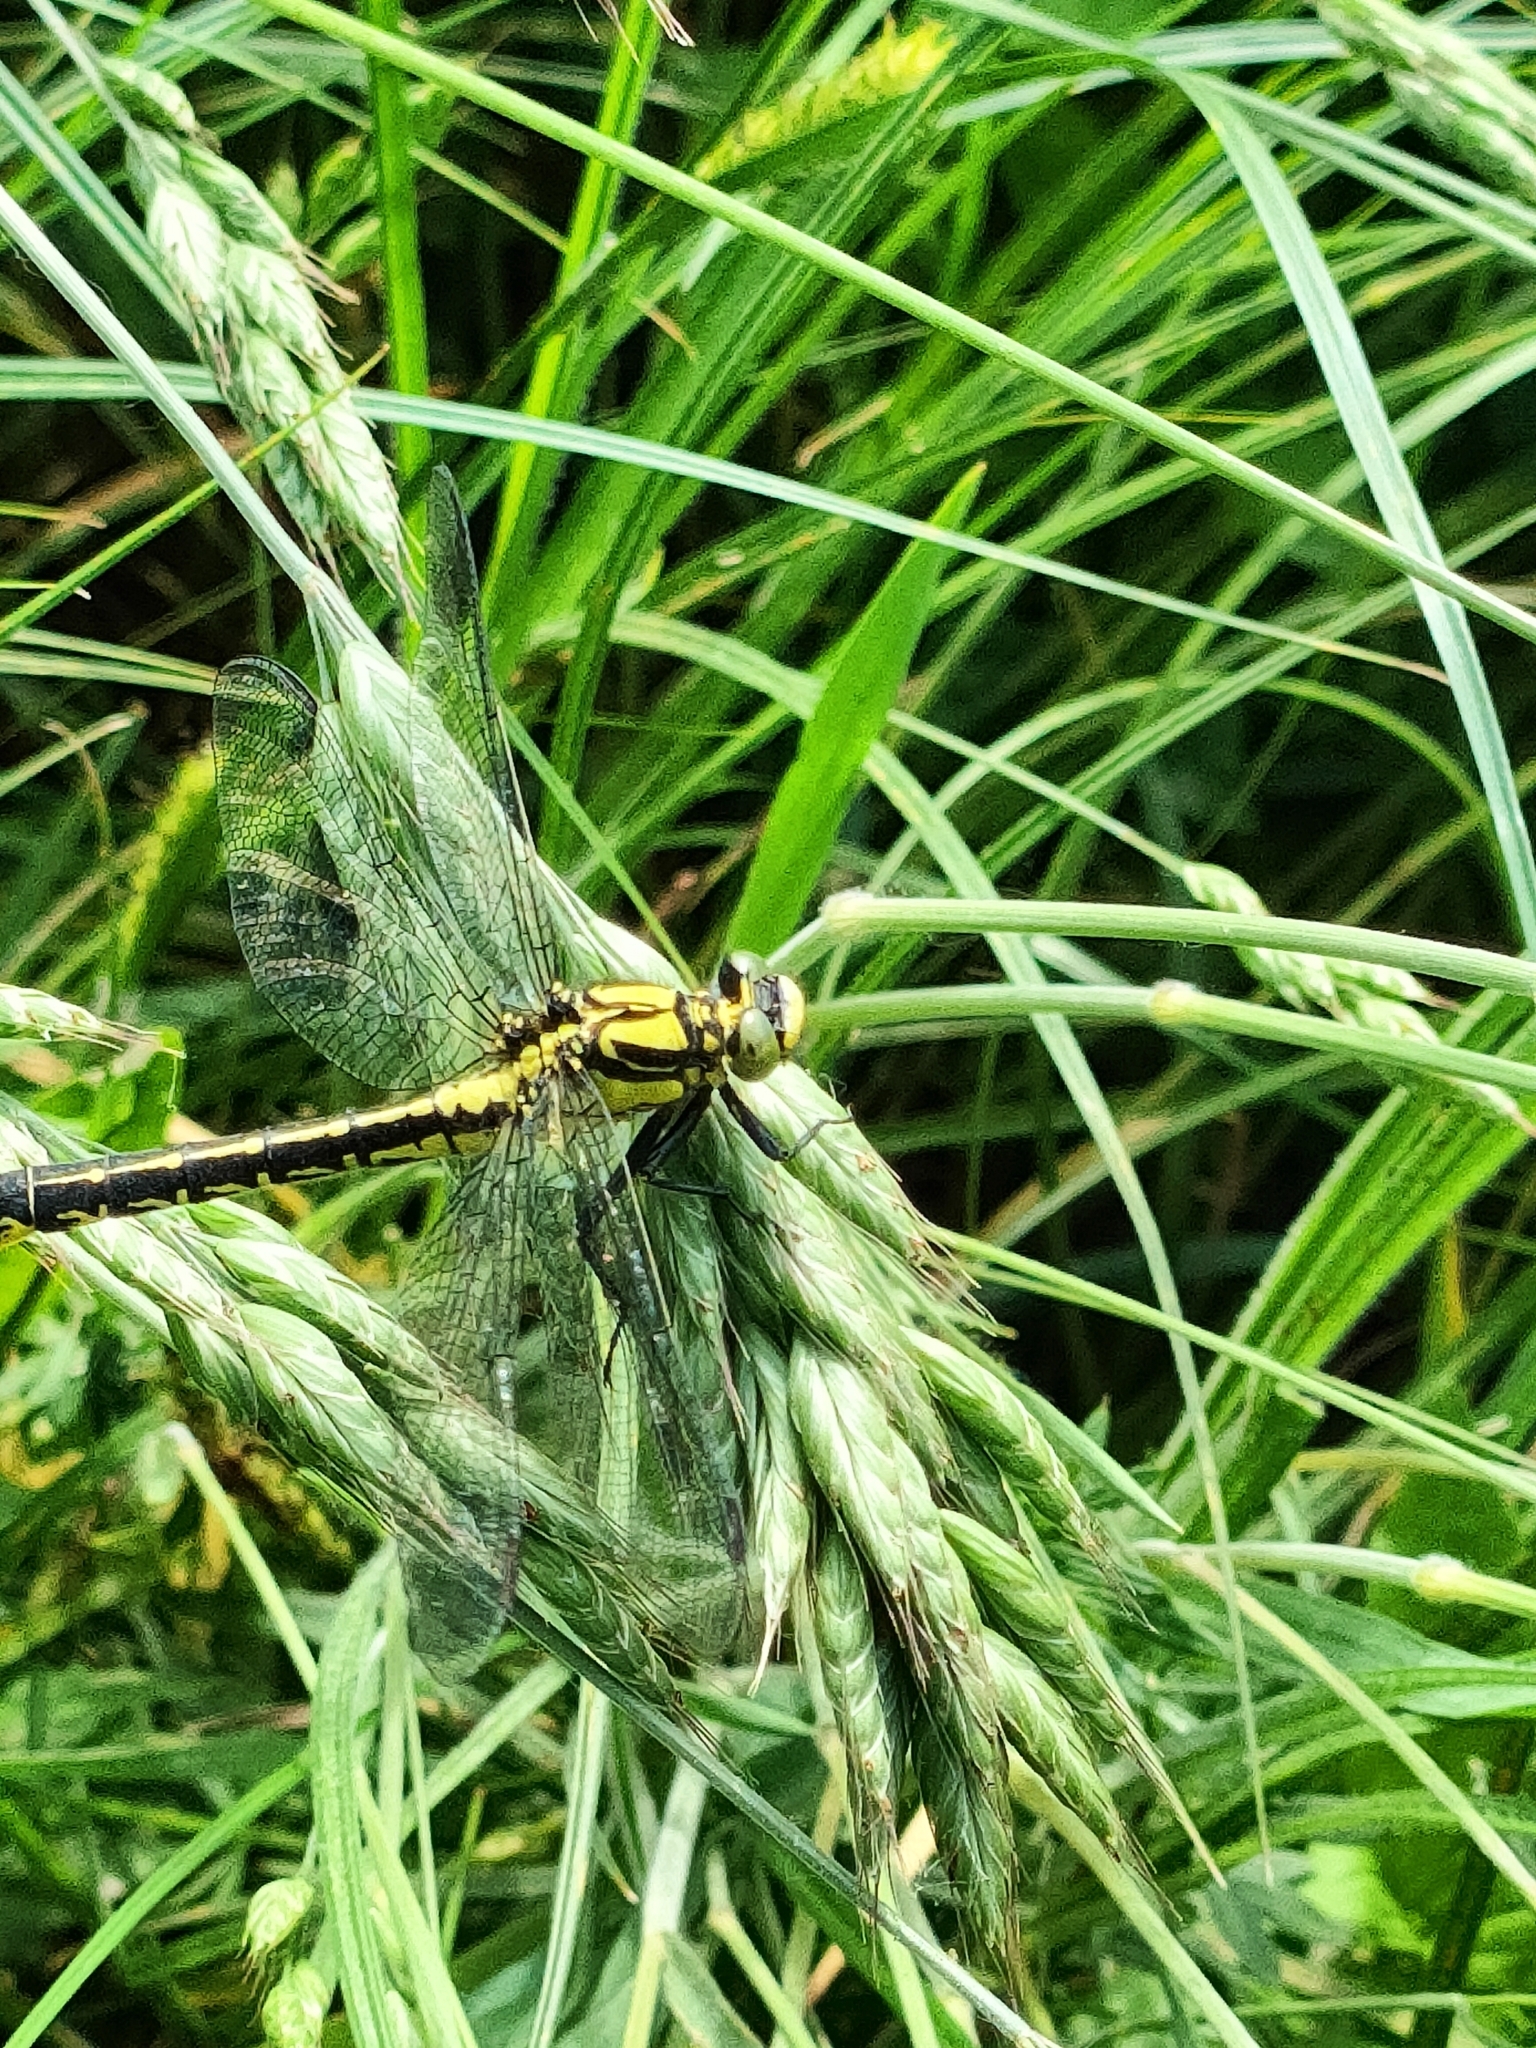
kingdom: Animalia
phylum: Arthropoda
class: Insecta
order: Odonata
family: Gomphidae
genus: Gomphus
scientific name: Gomphus vulgatissimus
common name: Club-tailed dragonfly
